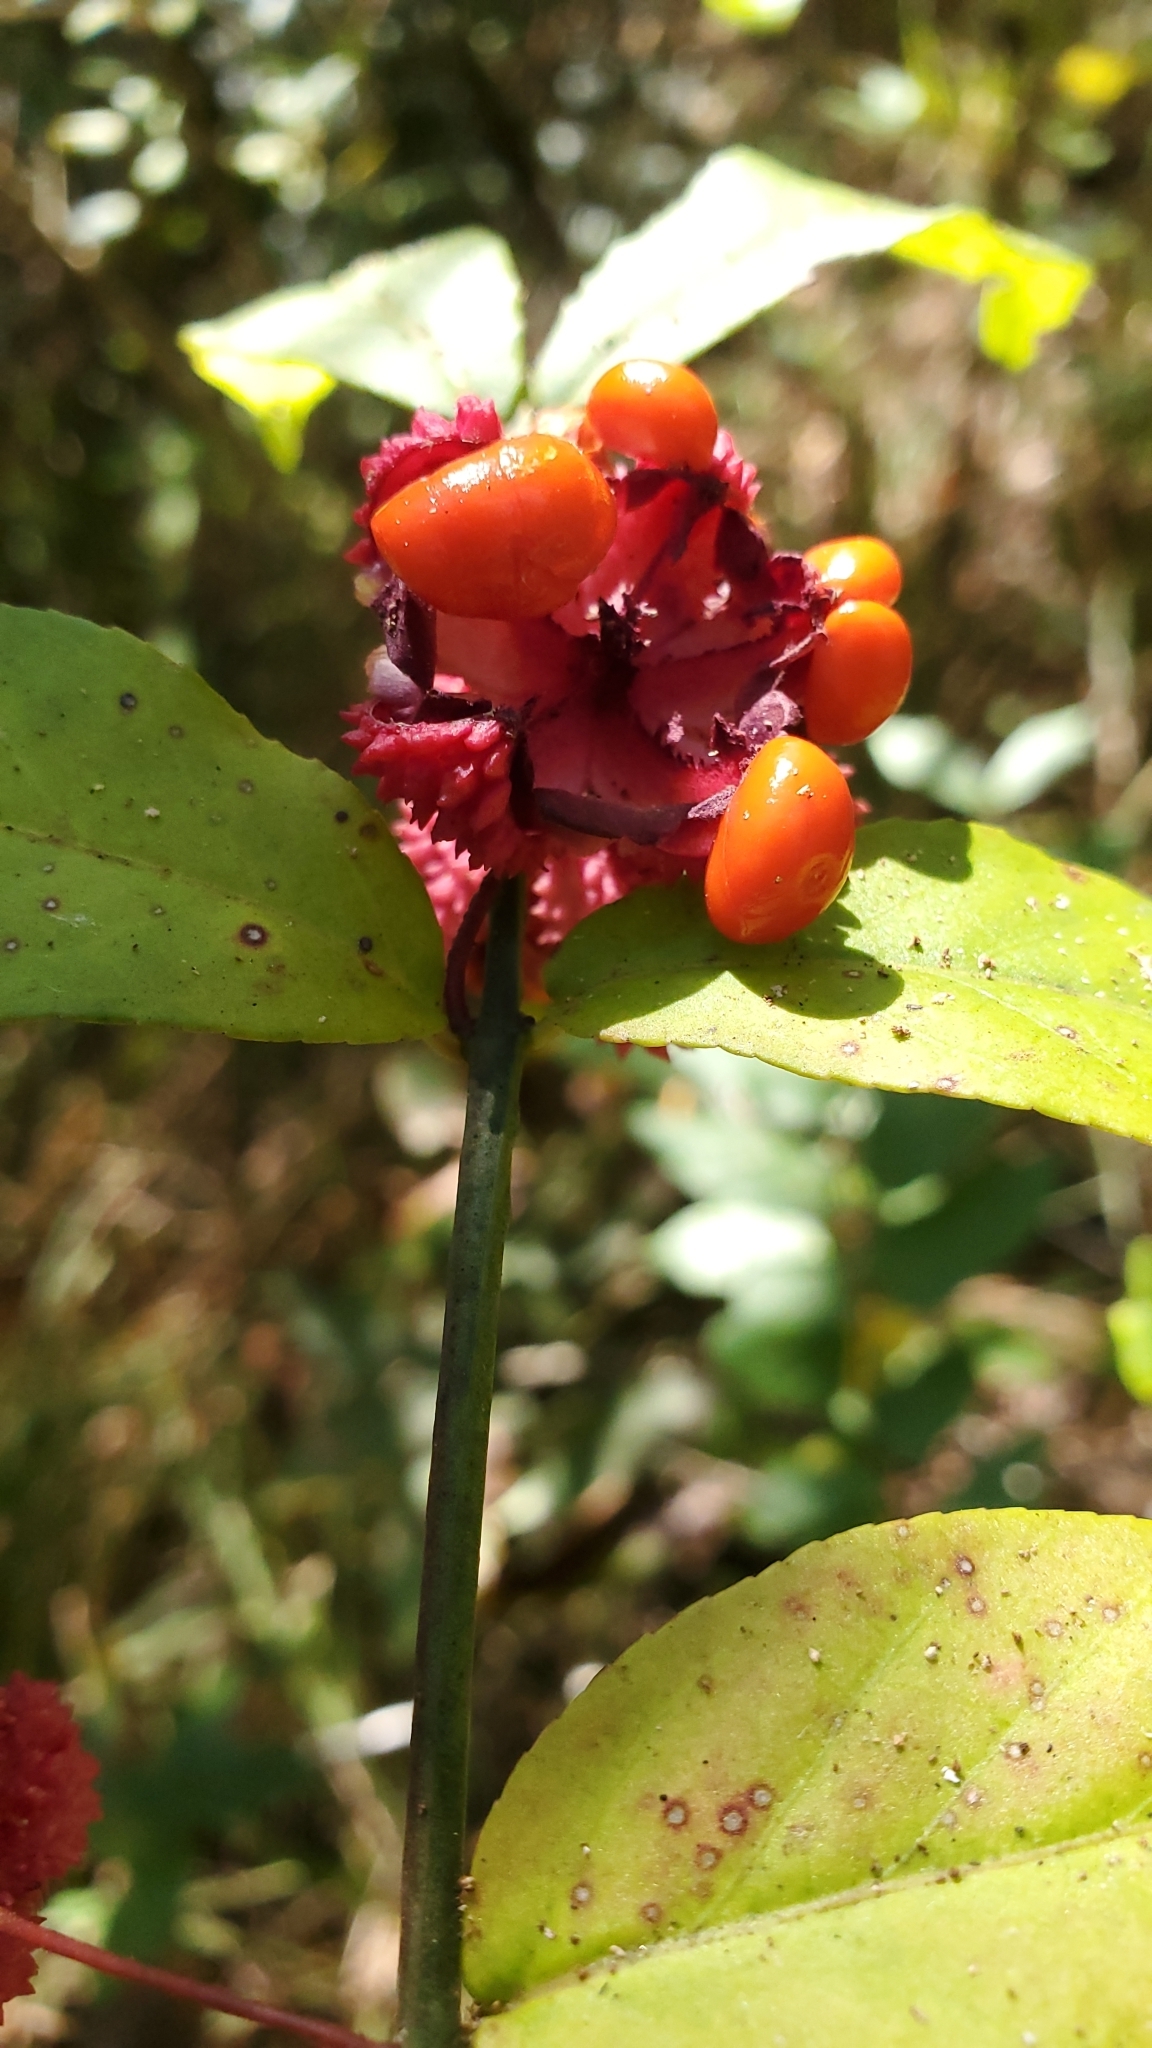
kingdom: Plantae
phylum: Tracheophyta
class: Magnoliopsida
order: Celastrales
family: Celastraceae
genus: Euonymus
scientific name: Euonymus americanus
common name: Bursting-heart
